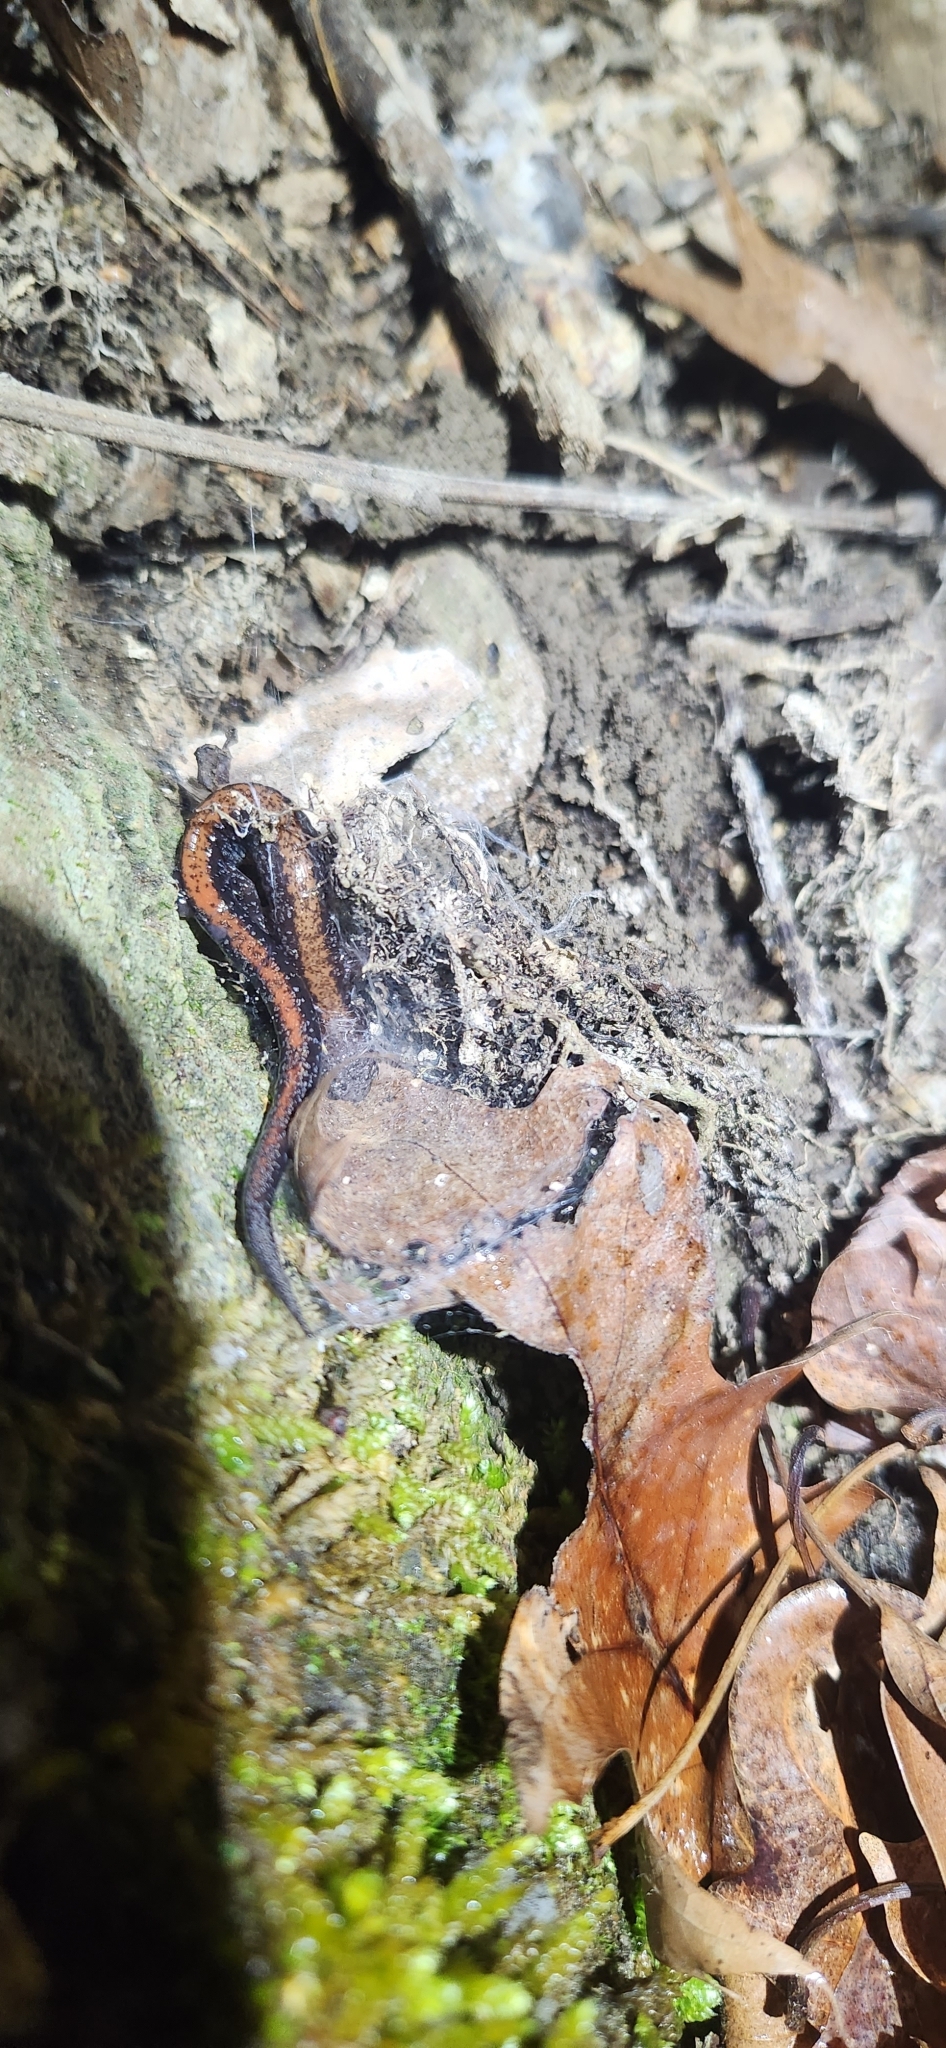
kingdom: Animalia
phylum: Chordata
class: Amphibia
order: Caudata
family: Plethodontidae
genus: Plethodon
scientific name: Plethodon cinereus
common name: Redback salamander
